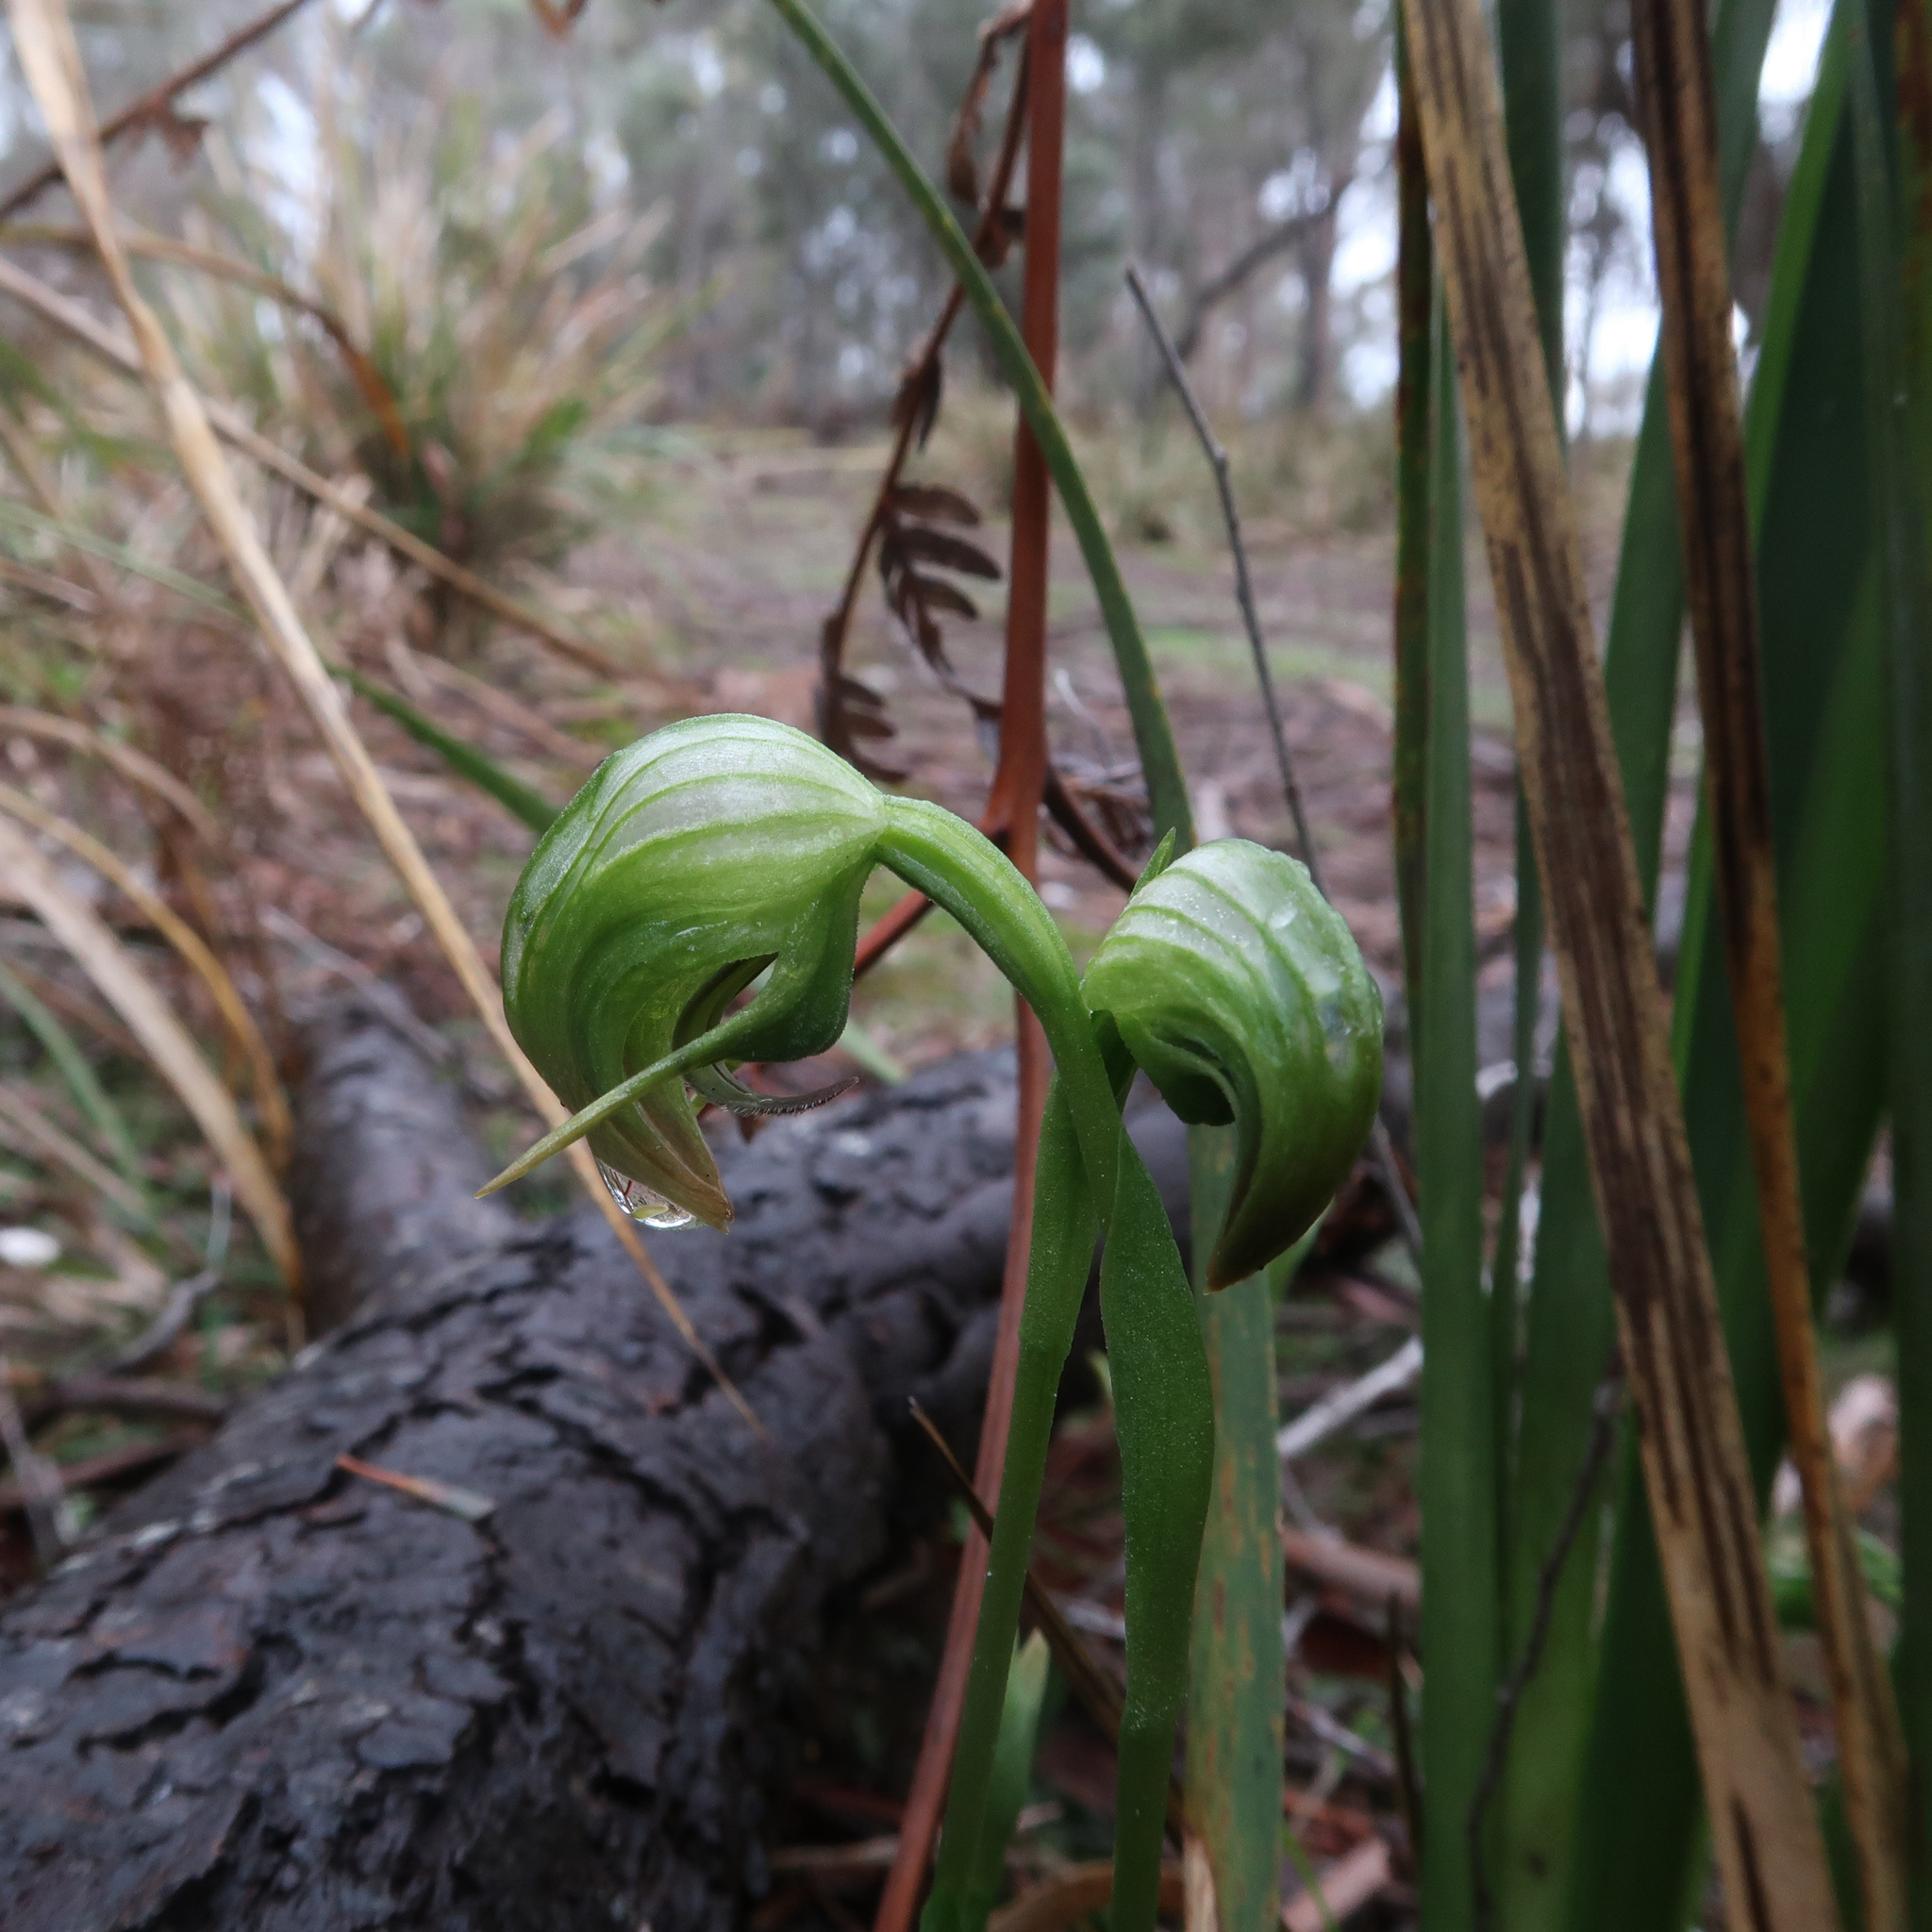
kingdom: Plantae
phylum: Tracheophyta
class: Liliopsida
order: Asparagales
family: Orchidaceae
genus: Pterostylis
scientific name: Pterostylis nutans
